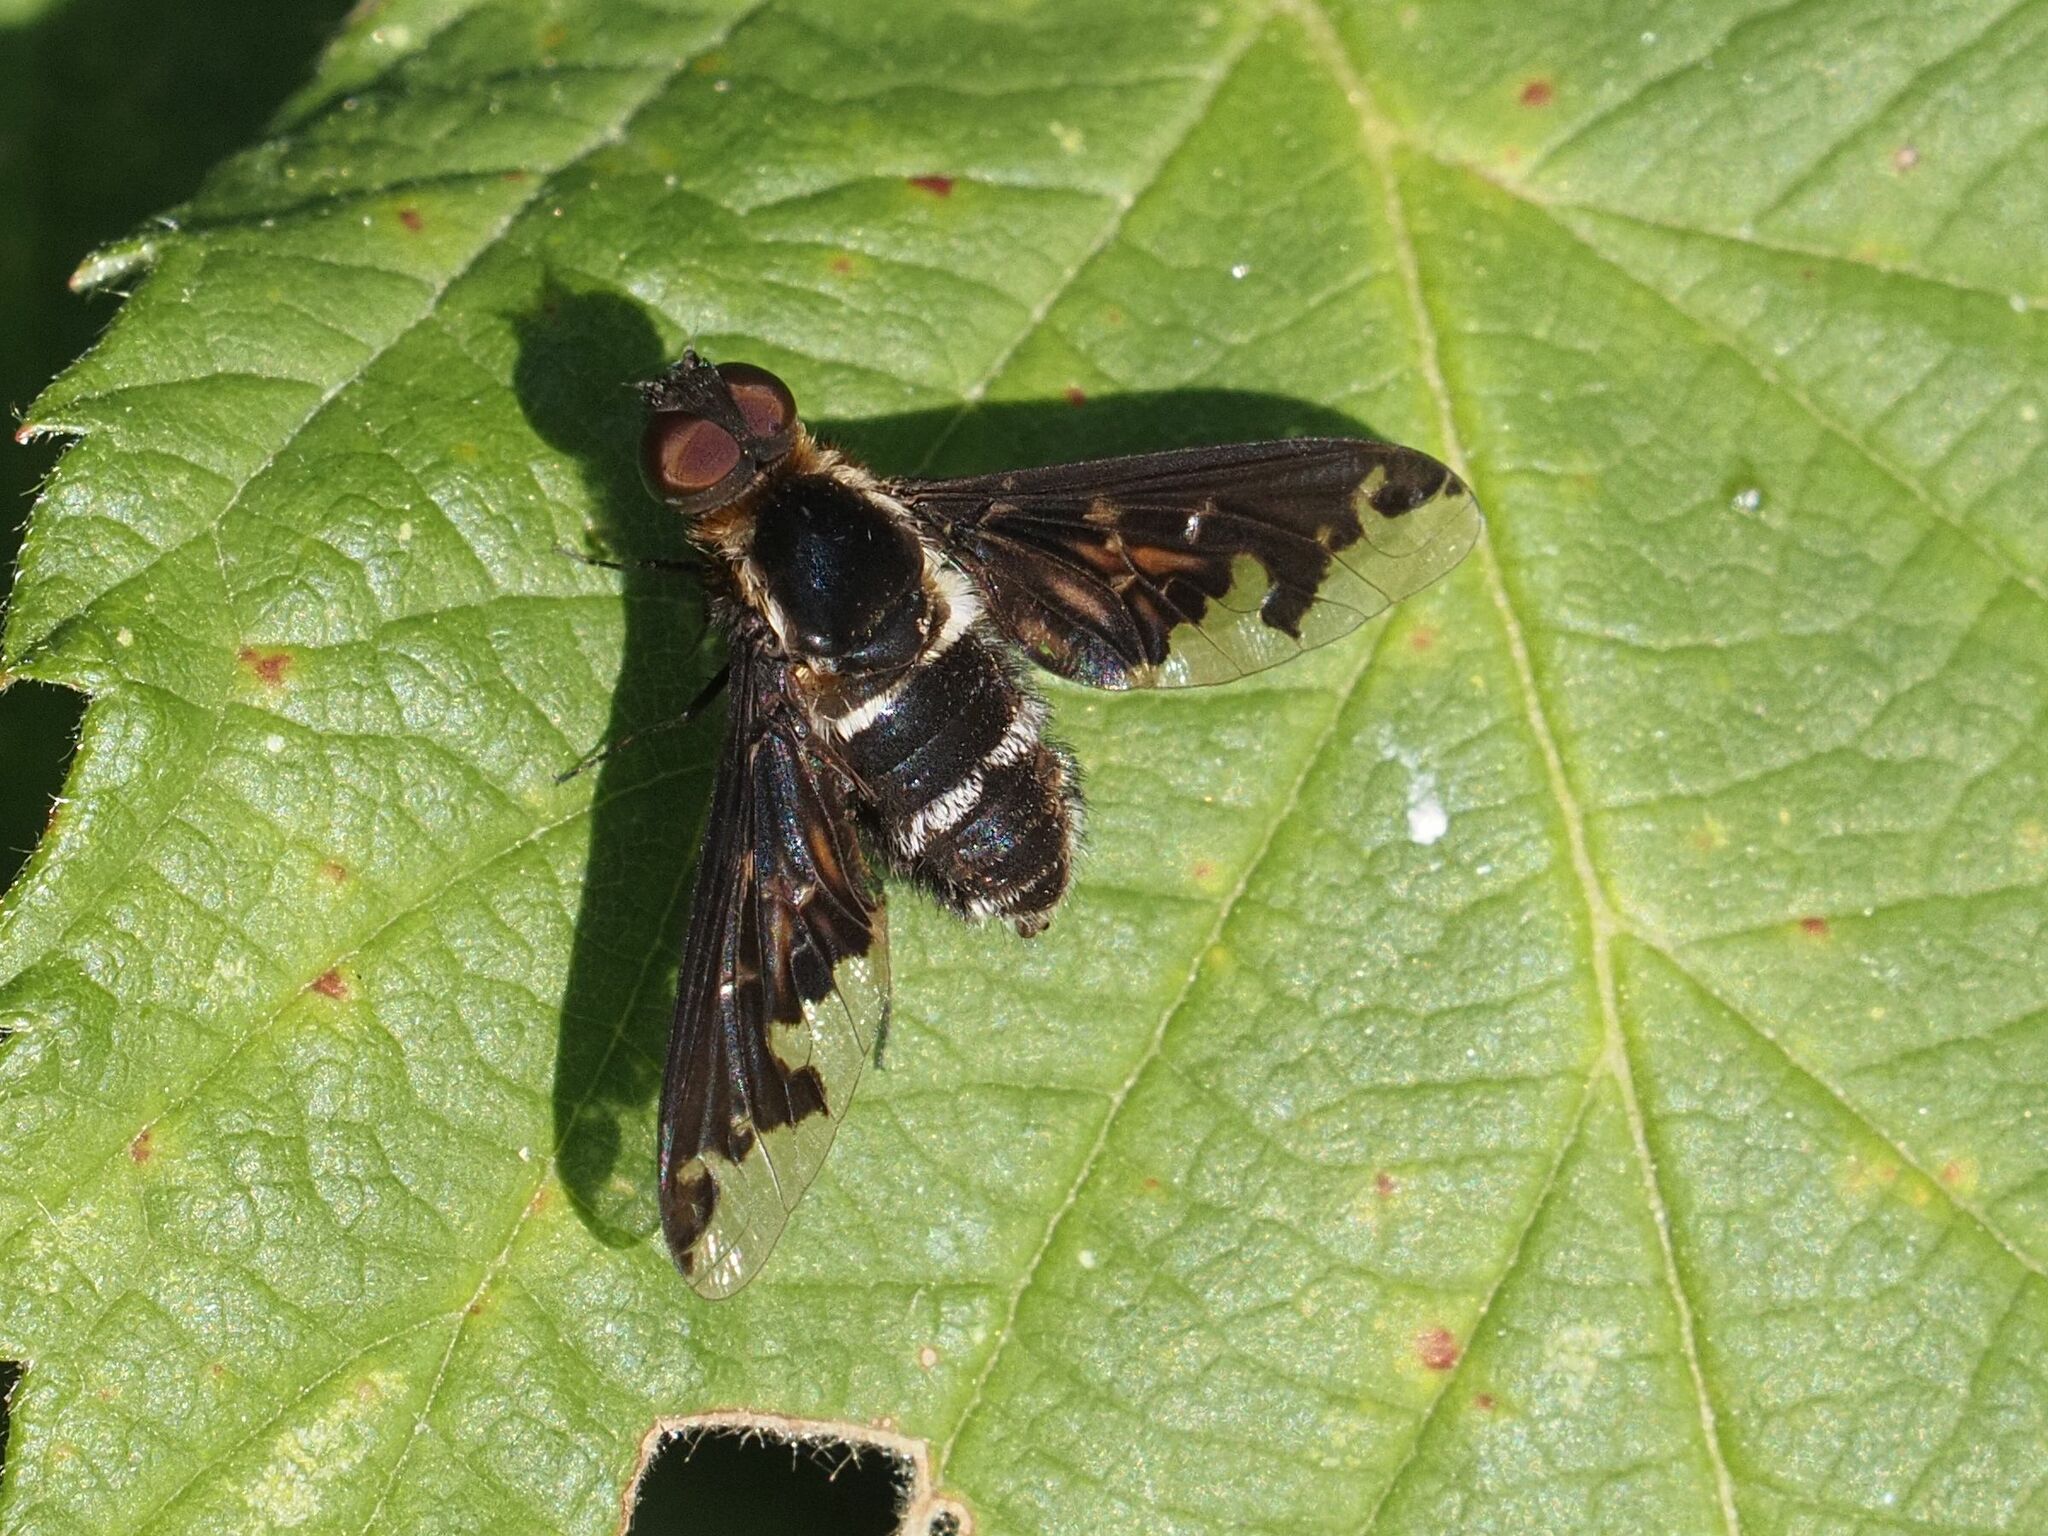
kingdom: Animalia
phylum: Arthropoda
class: Insecta
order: Diptera
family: Bombyliidae
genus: Hemipenthes
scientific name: Hemipenthes maura
